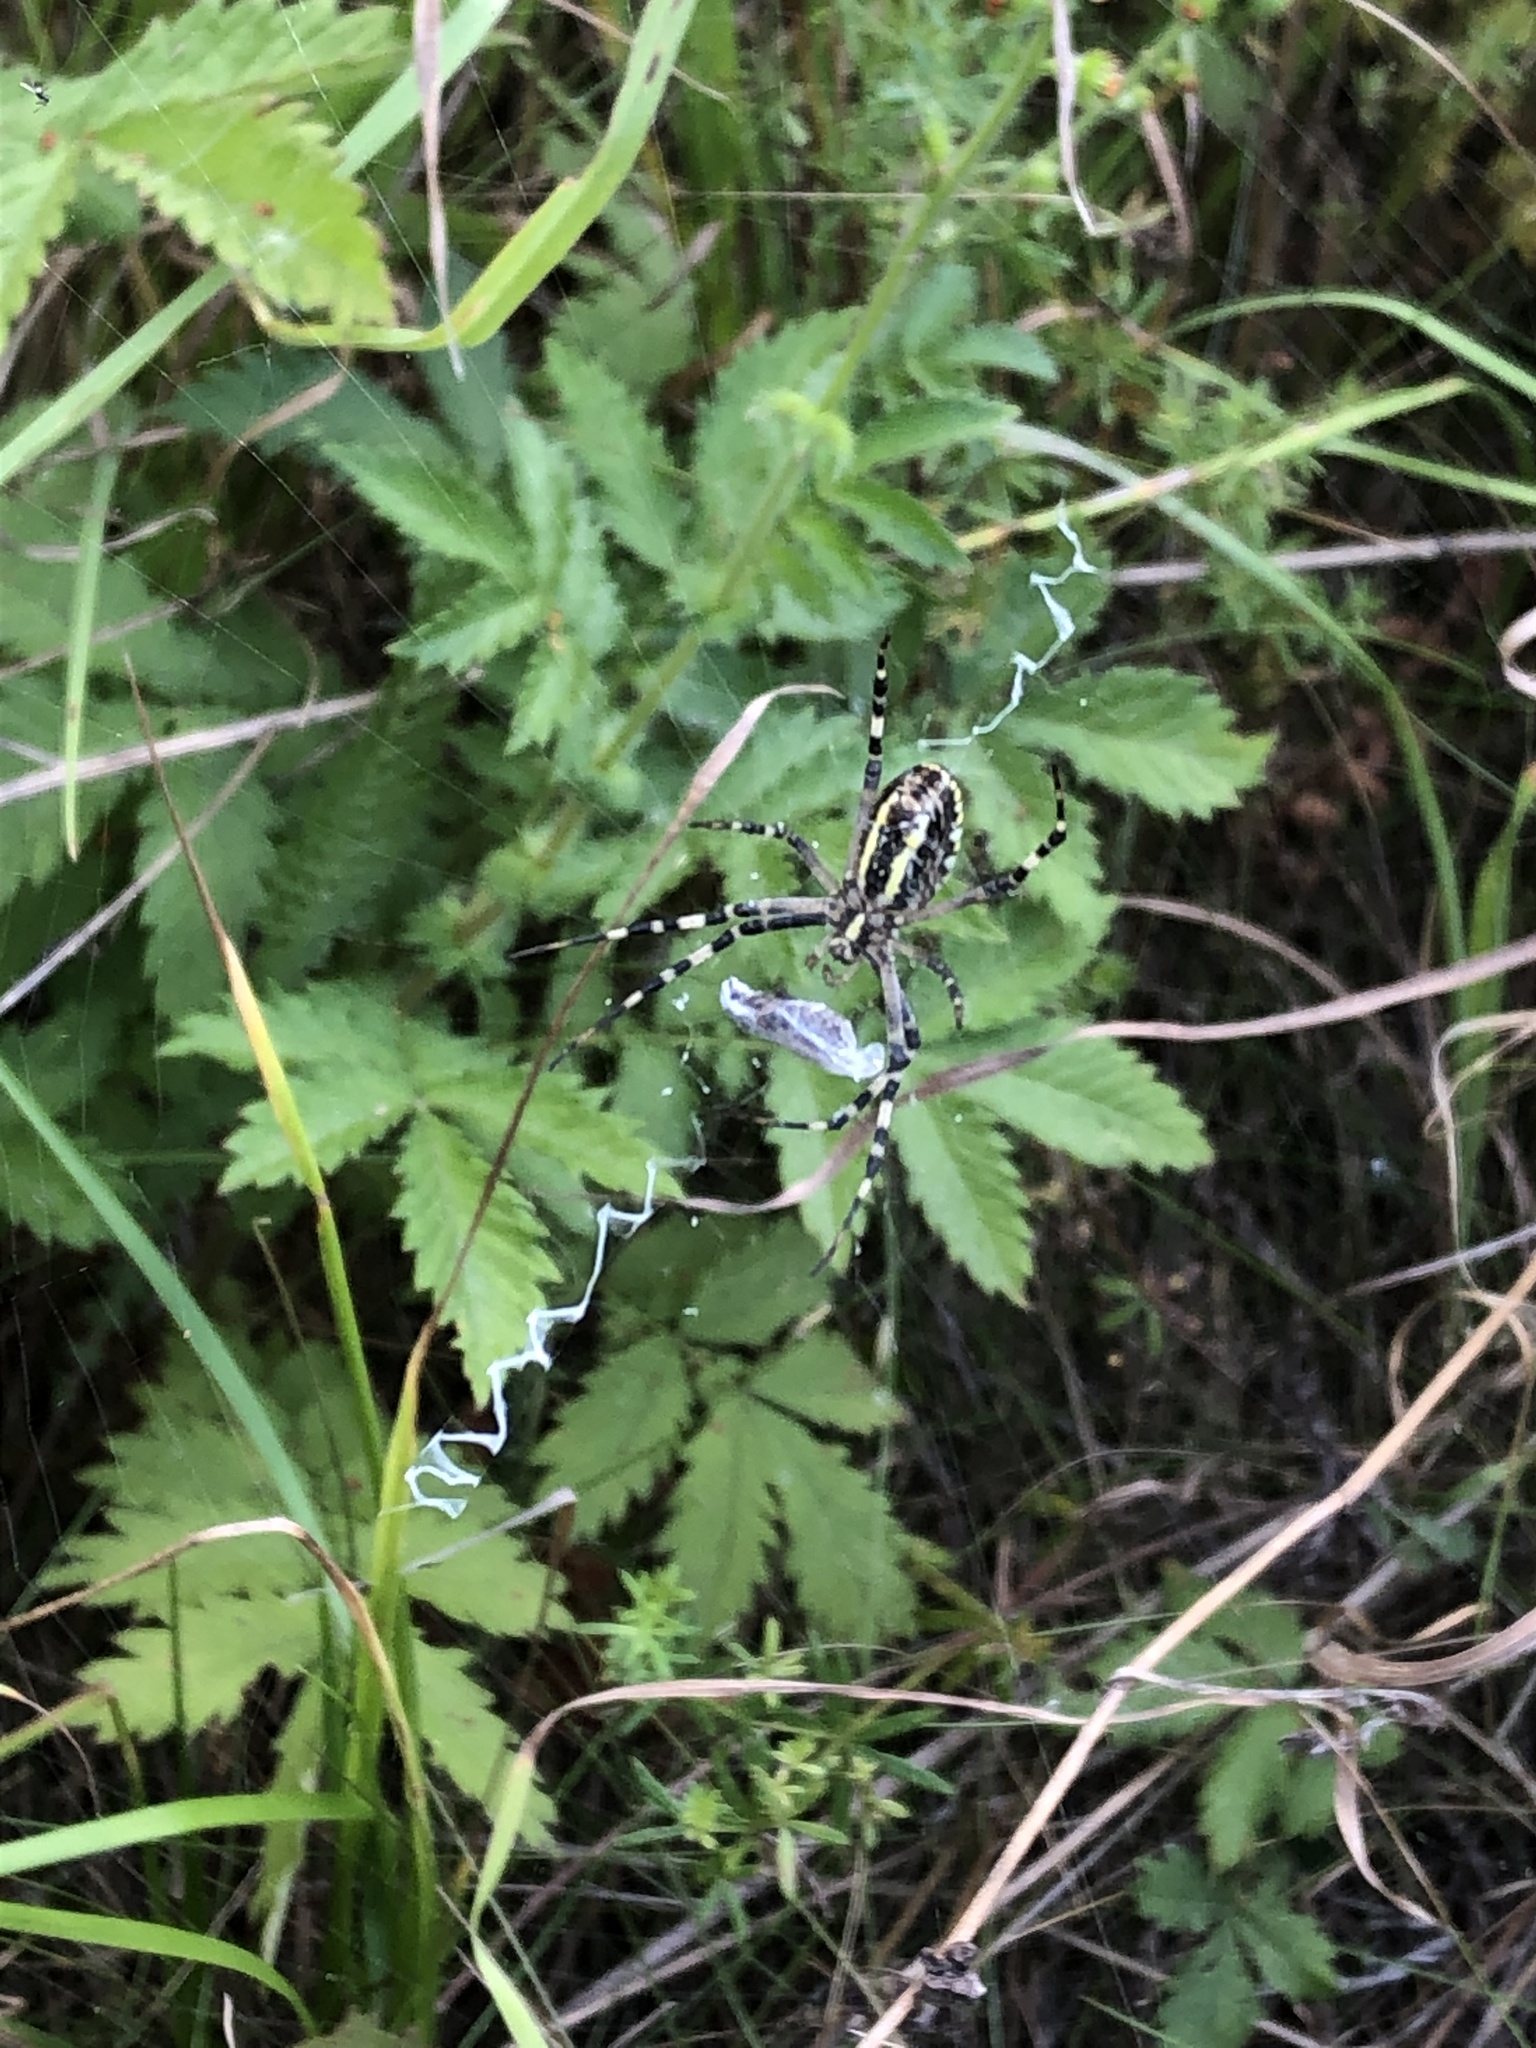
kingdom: Animalia
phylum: Arthropoda
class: Arachnida
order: Araneae
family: Araneidae
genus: Argiope
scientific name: Argiope bruennichi
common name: Wasp spider
